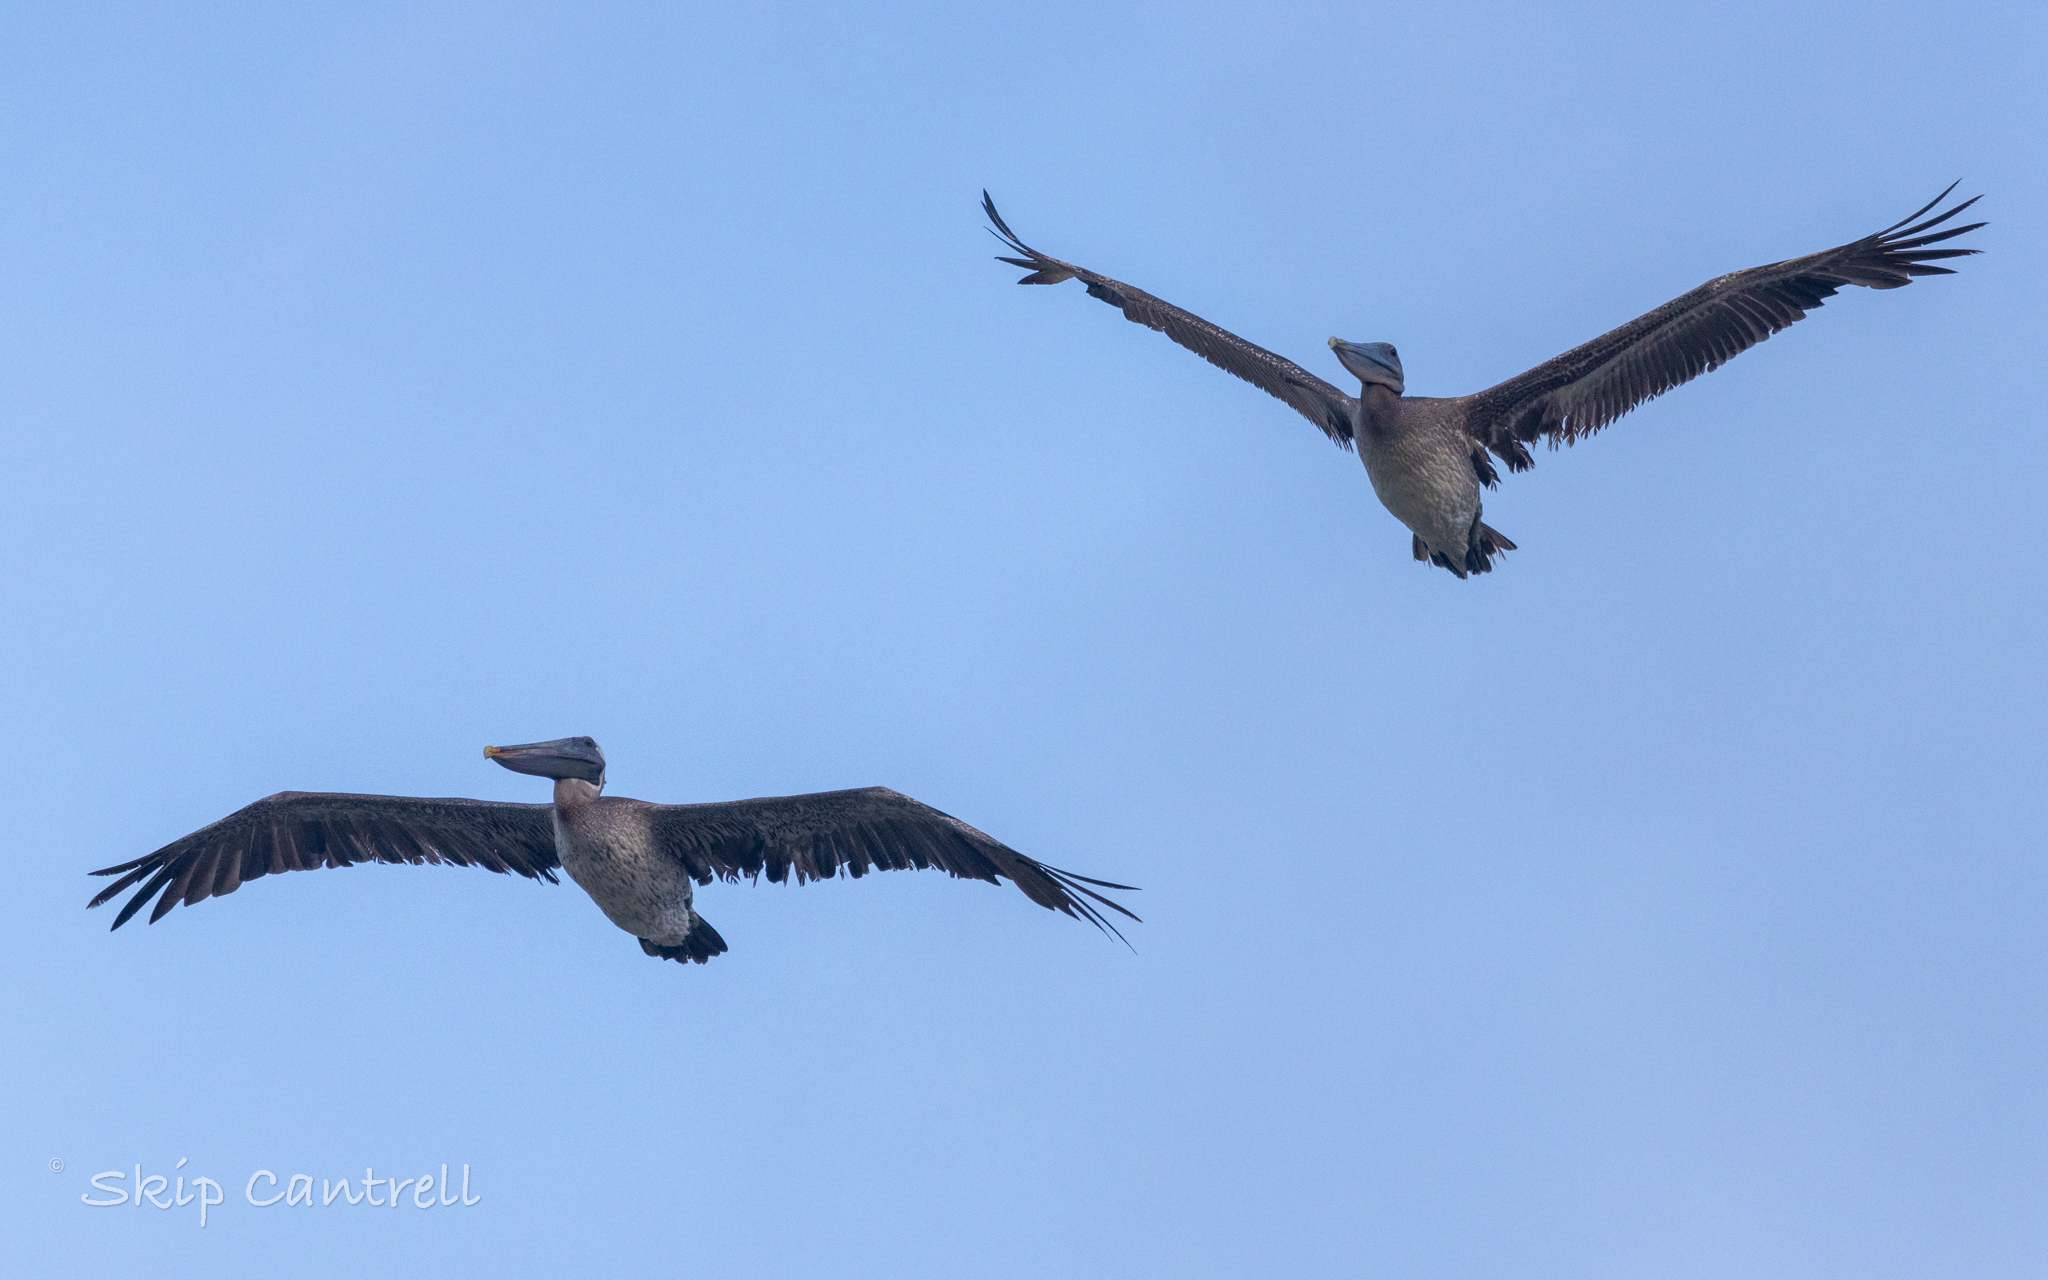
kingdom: Animalia
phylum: Chordata
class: Aves
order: Pelecaniformes
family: Pelecanidae
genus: Pelecanus
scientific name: Pelecanus occidentalis
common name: Brown pelican
